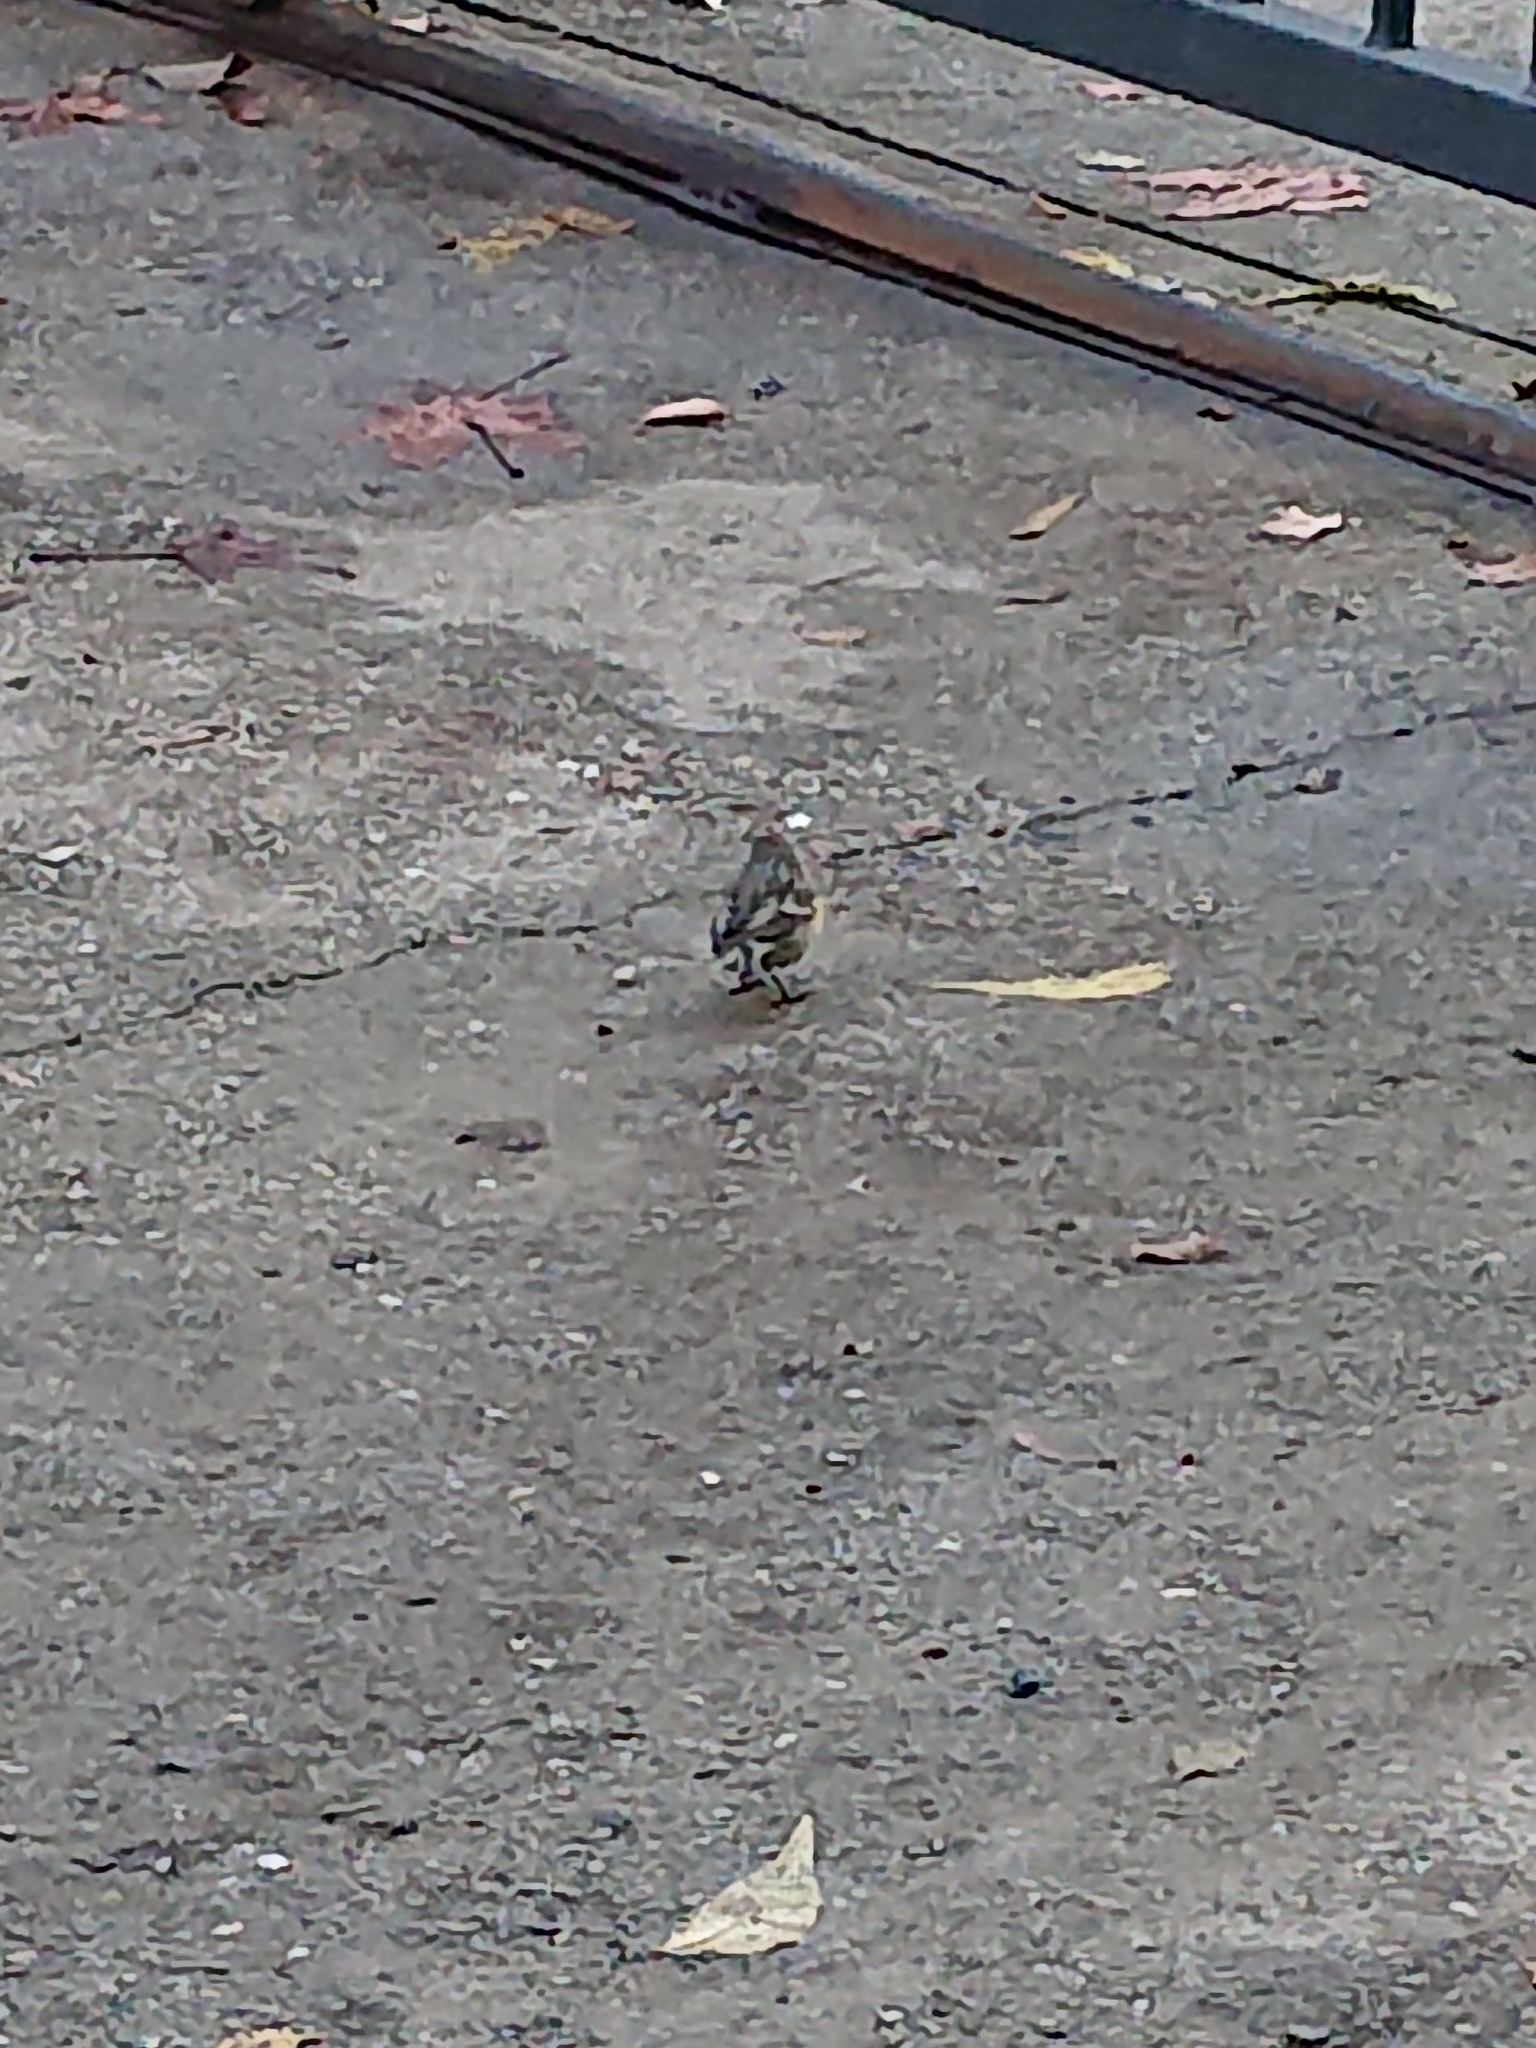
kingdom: Animalia
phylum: Chordata
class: Aves
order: Passeriformes
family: Parulidae
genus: Setophaga
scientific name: Setophaga coronata
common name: Myrtle warbler
